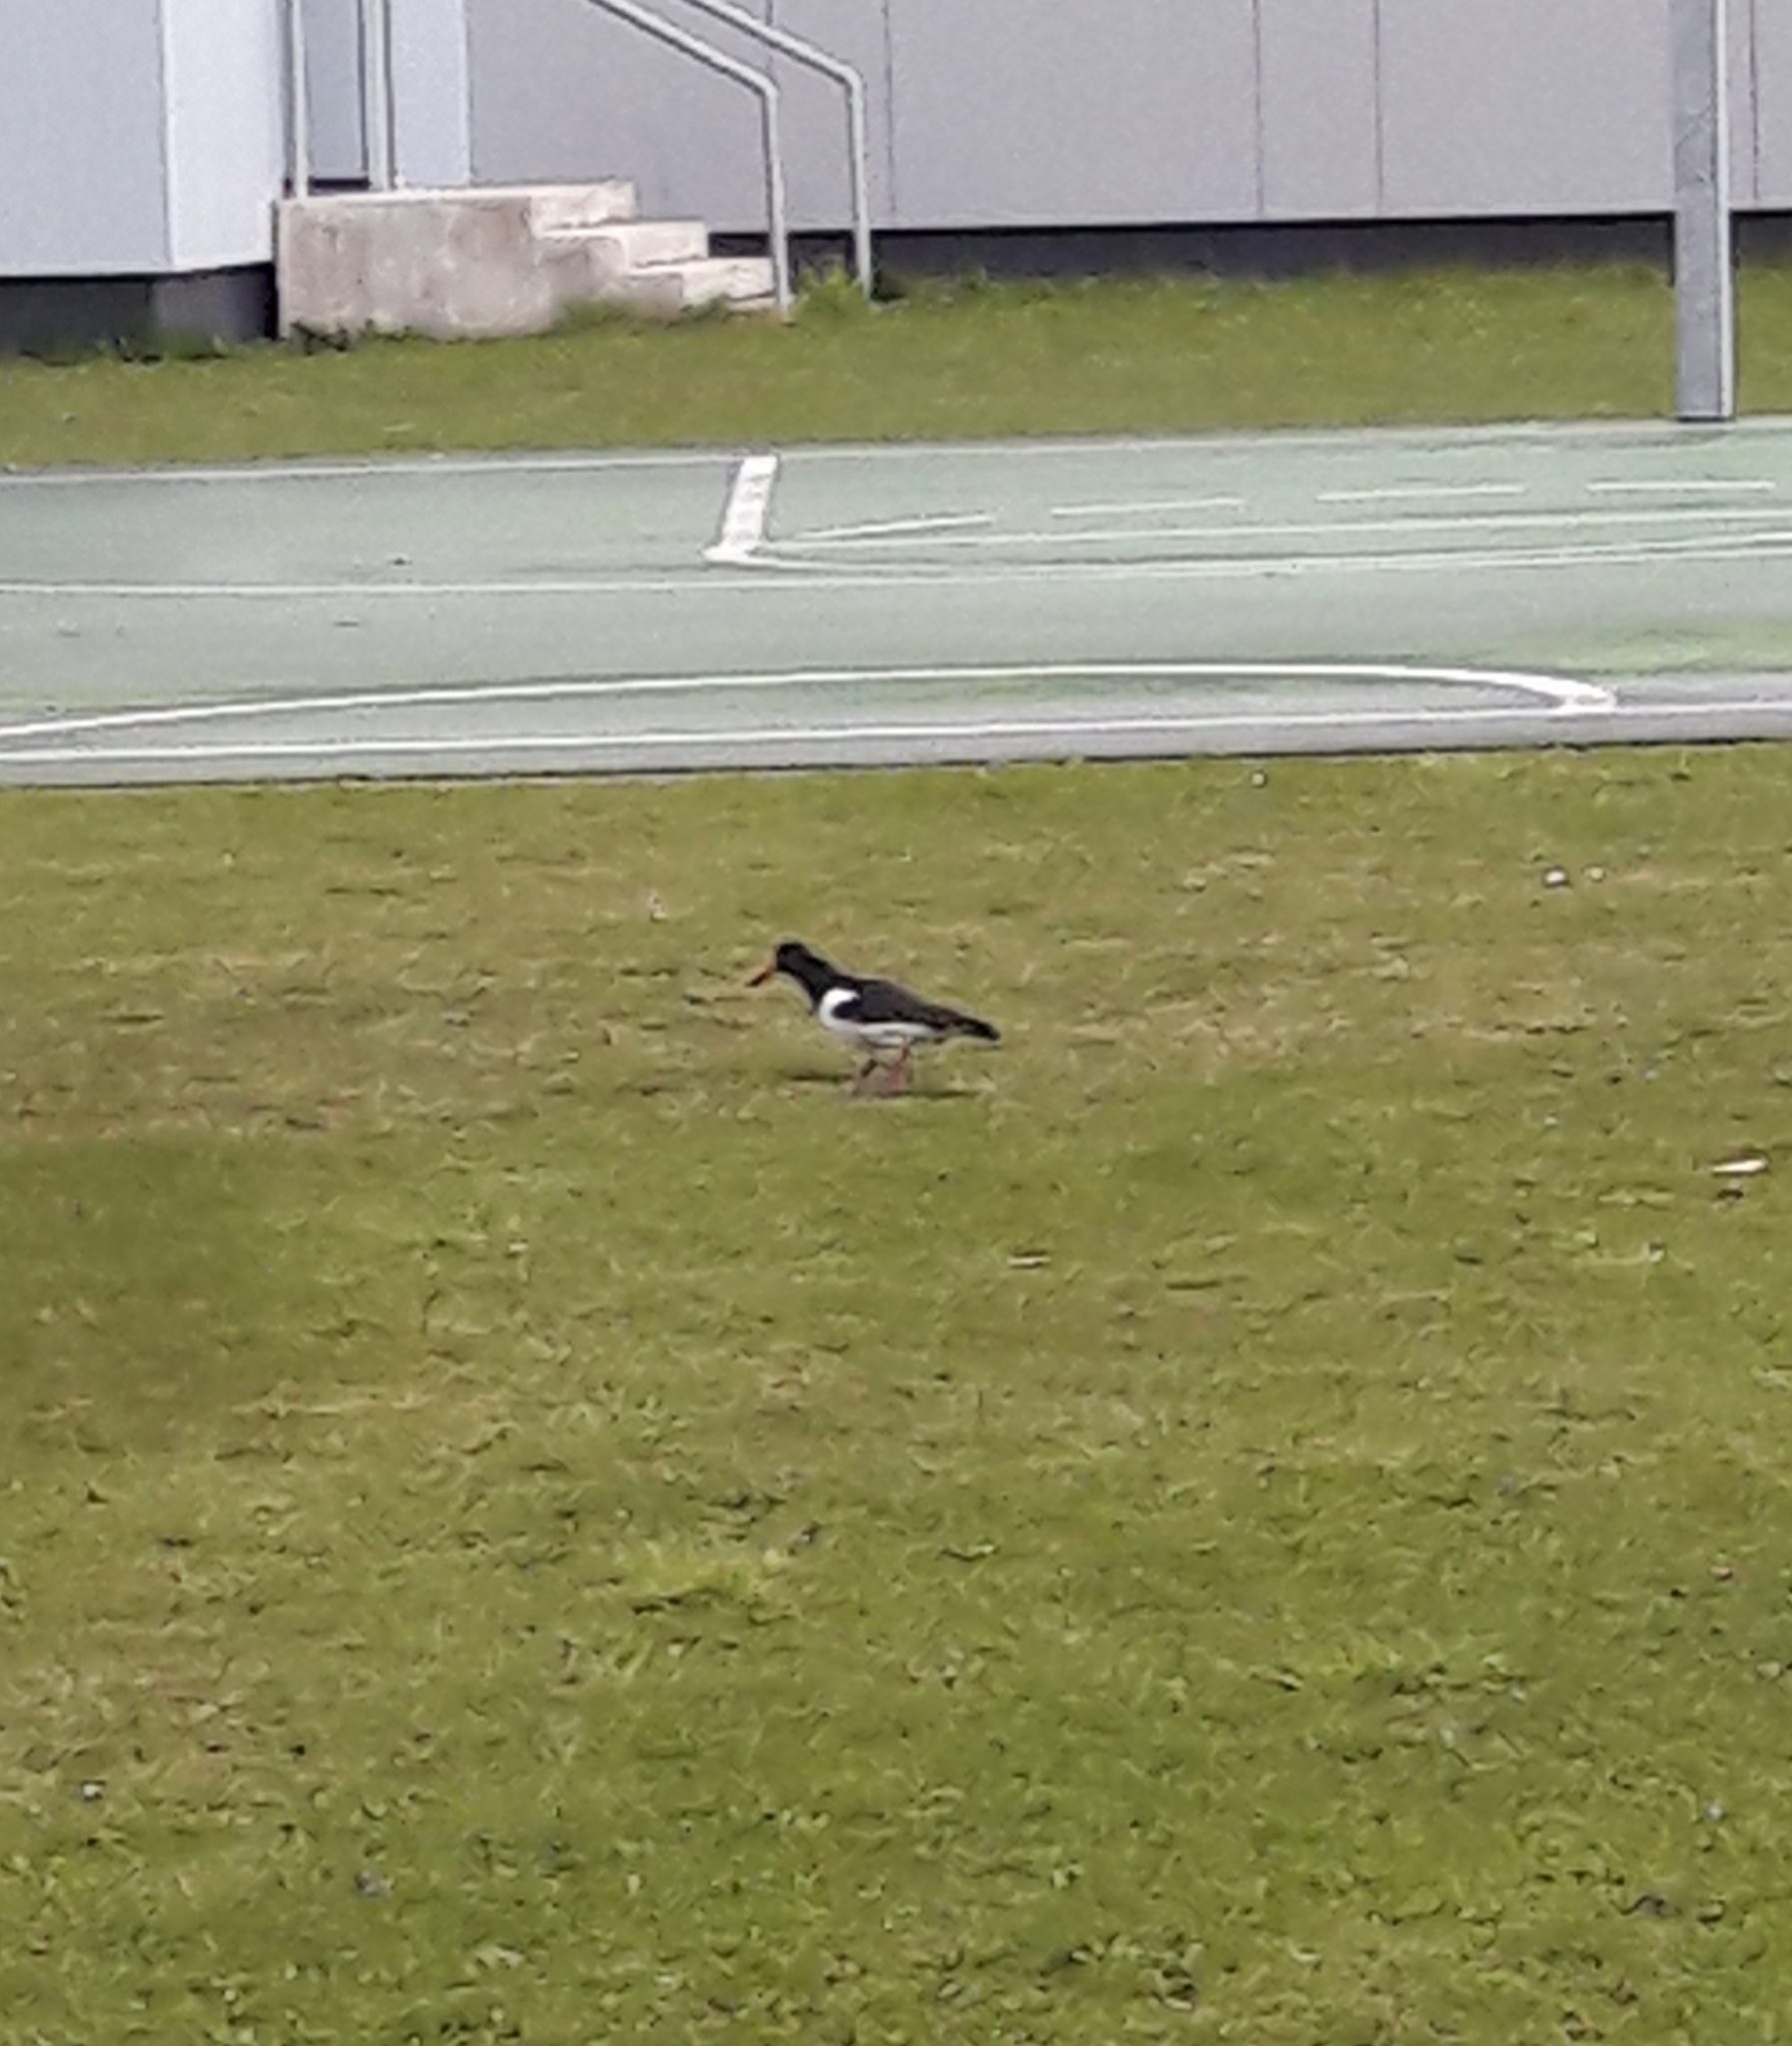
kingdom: Animalia
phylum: Chordata
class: Aves
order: Charadriiformes
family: Haematopodidae
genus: Haematopus
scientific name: Haematopus ostralegus
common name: Eurasian oystercatcher
